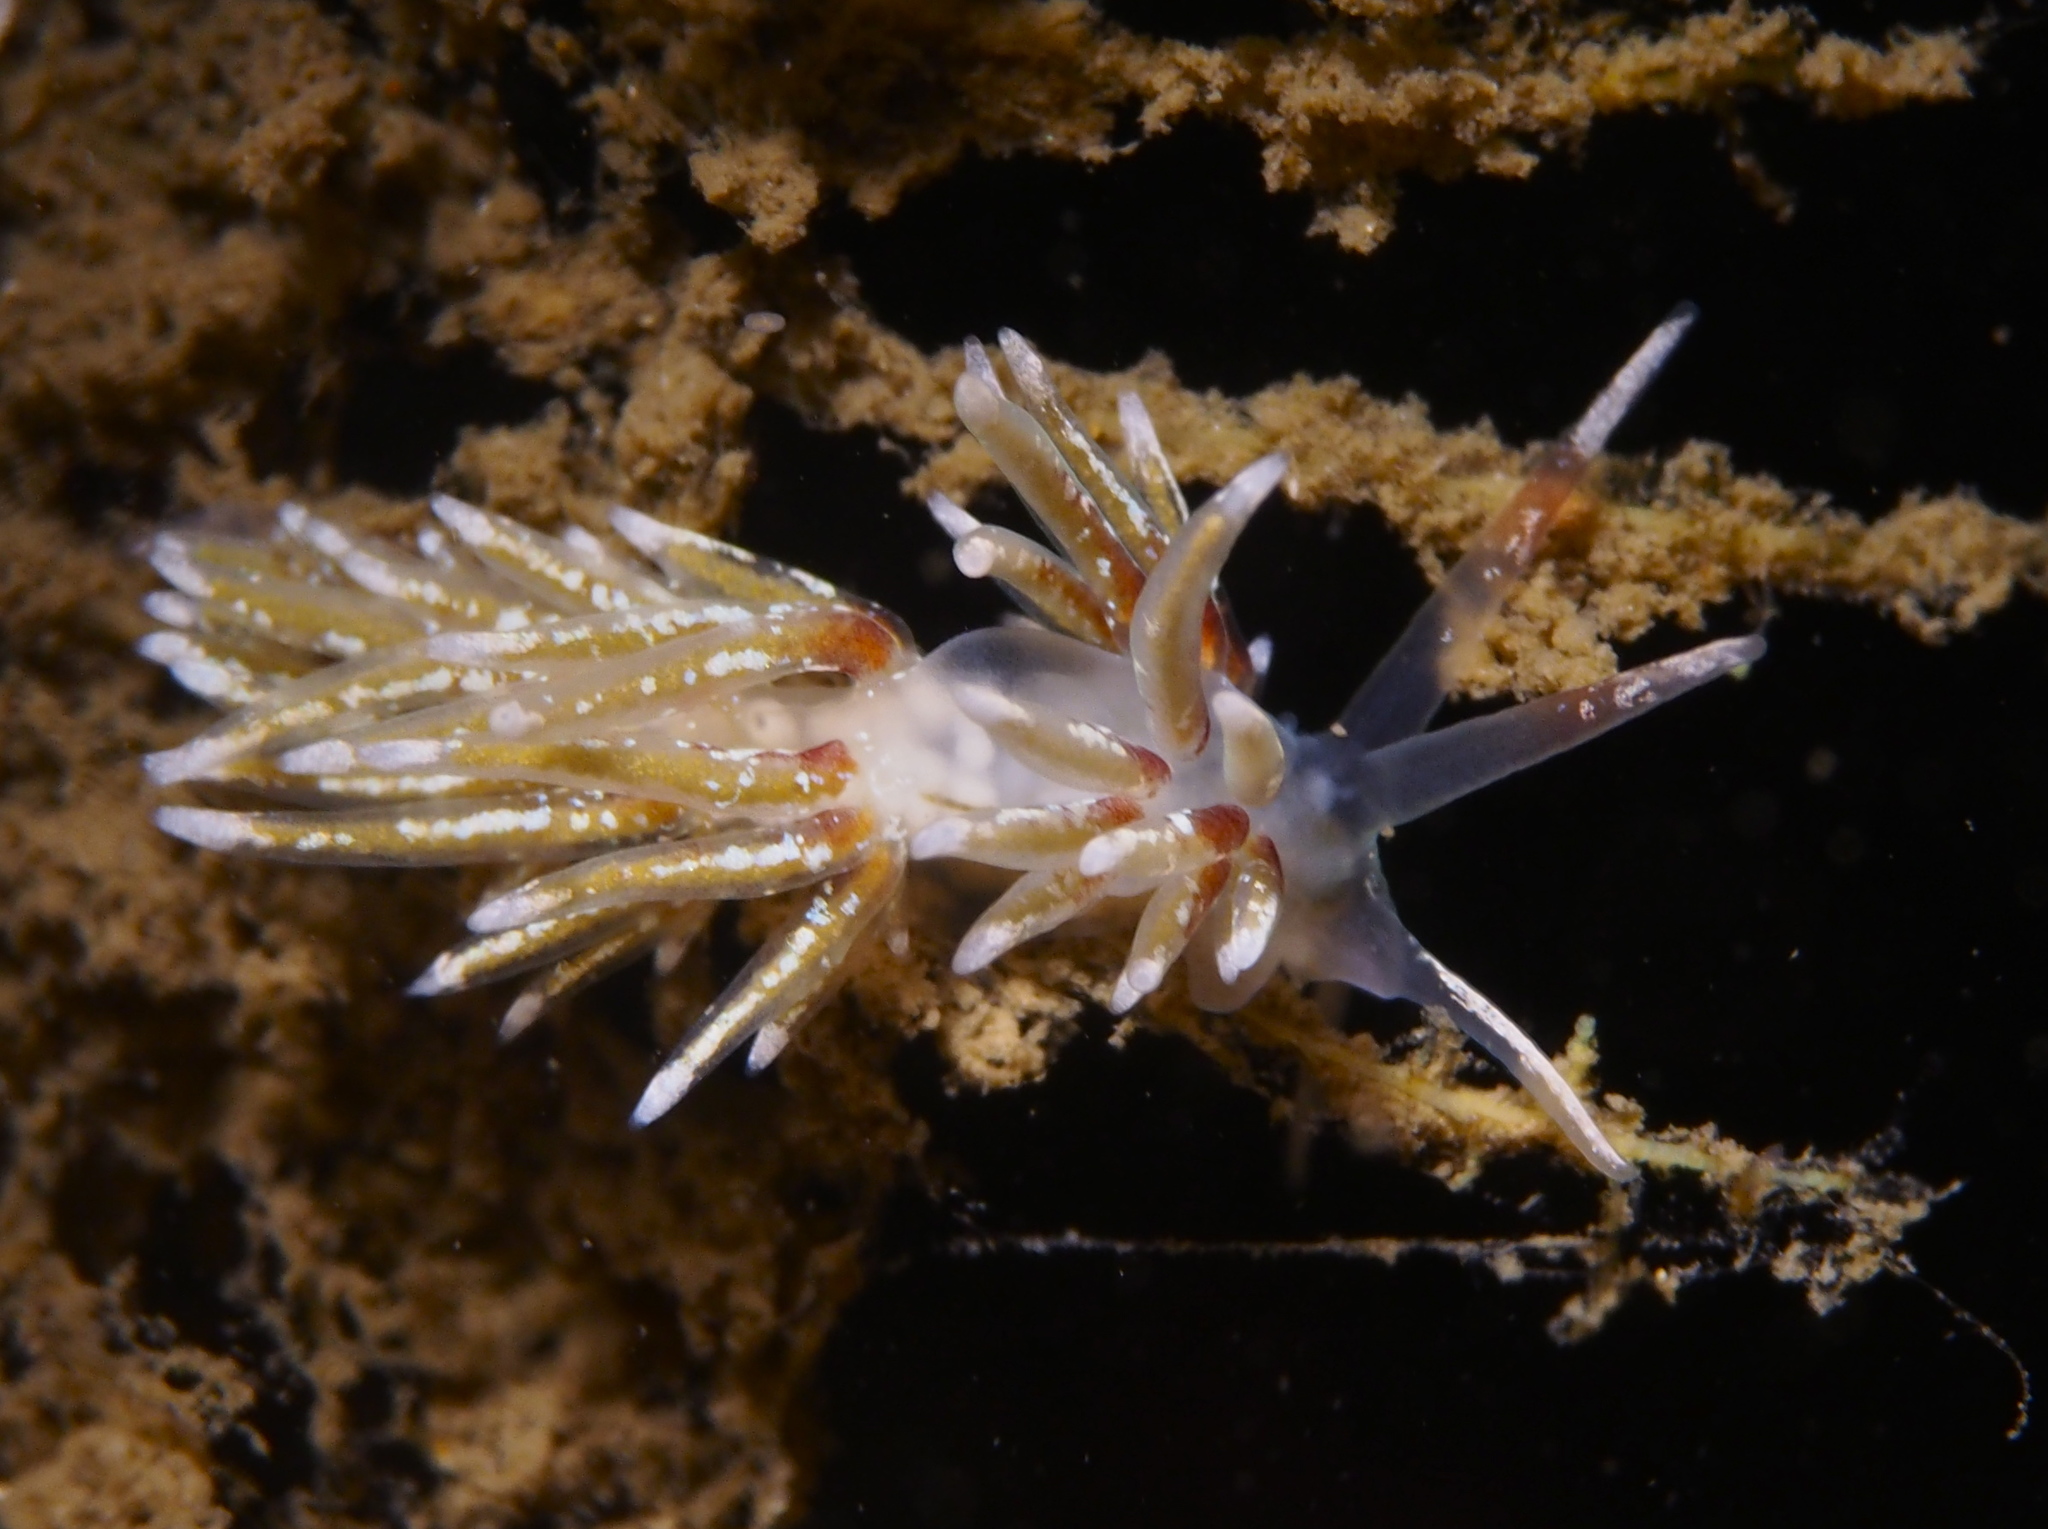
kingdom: Animalia
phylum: Mollusca
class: Gastropoda
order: Nudibranchia
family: Trinchesiidae
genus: Rubramoena
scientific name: Rubramoena rubescens
